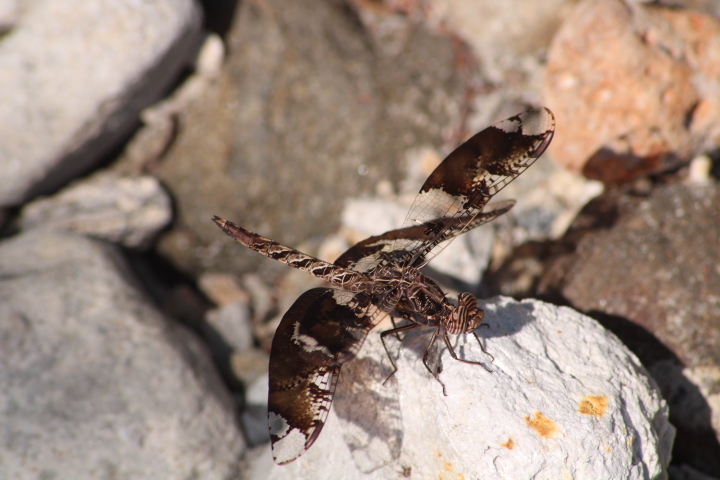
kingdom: Animalia
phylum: Arthropoda
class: Insecta
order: Odonata
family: Libellulidae
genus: Pseudoleon
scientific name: Pseudoleon superbus
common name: Filigree skimmer
